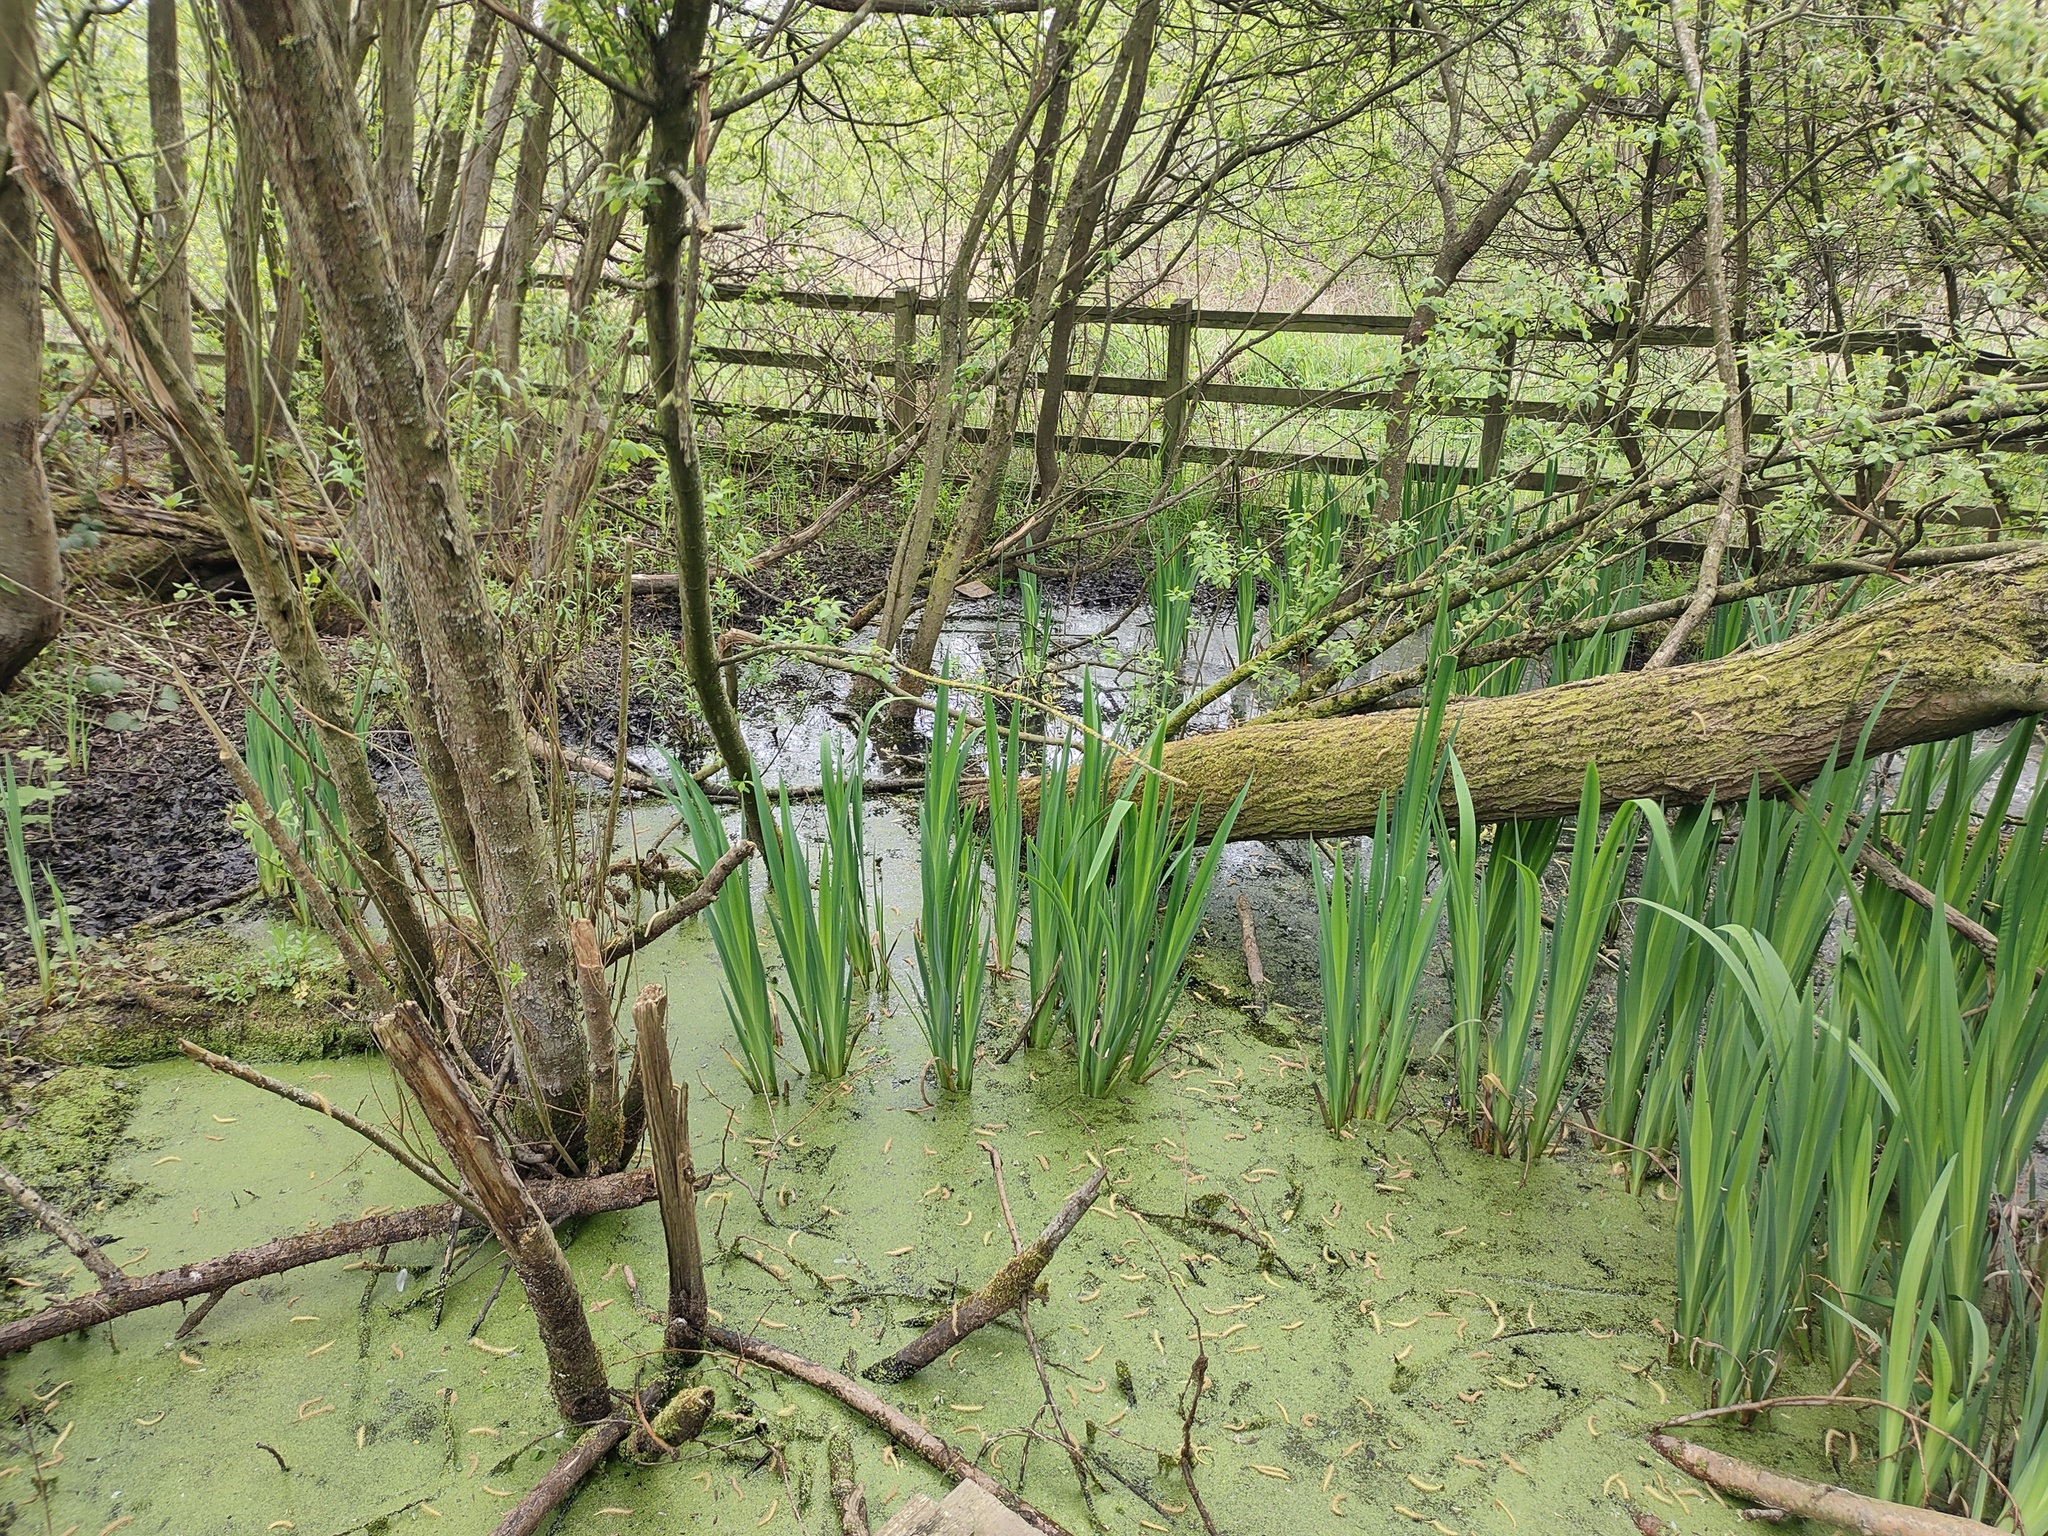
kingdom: Plantae
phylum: Tracheophyta
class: Liliopsida
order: Asparagales
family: Iridaceae
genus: Iris
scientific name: Iris pseudacorus
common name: Yellow flag
